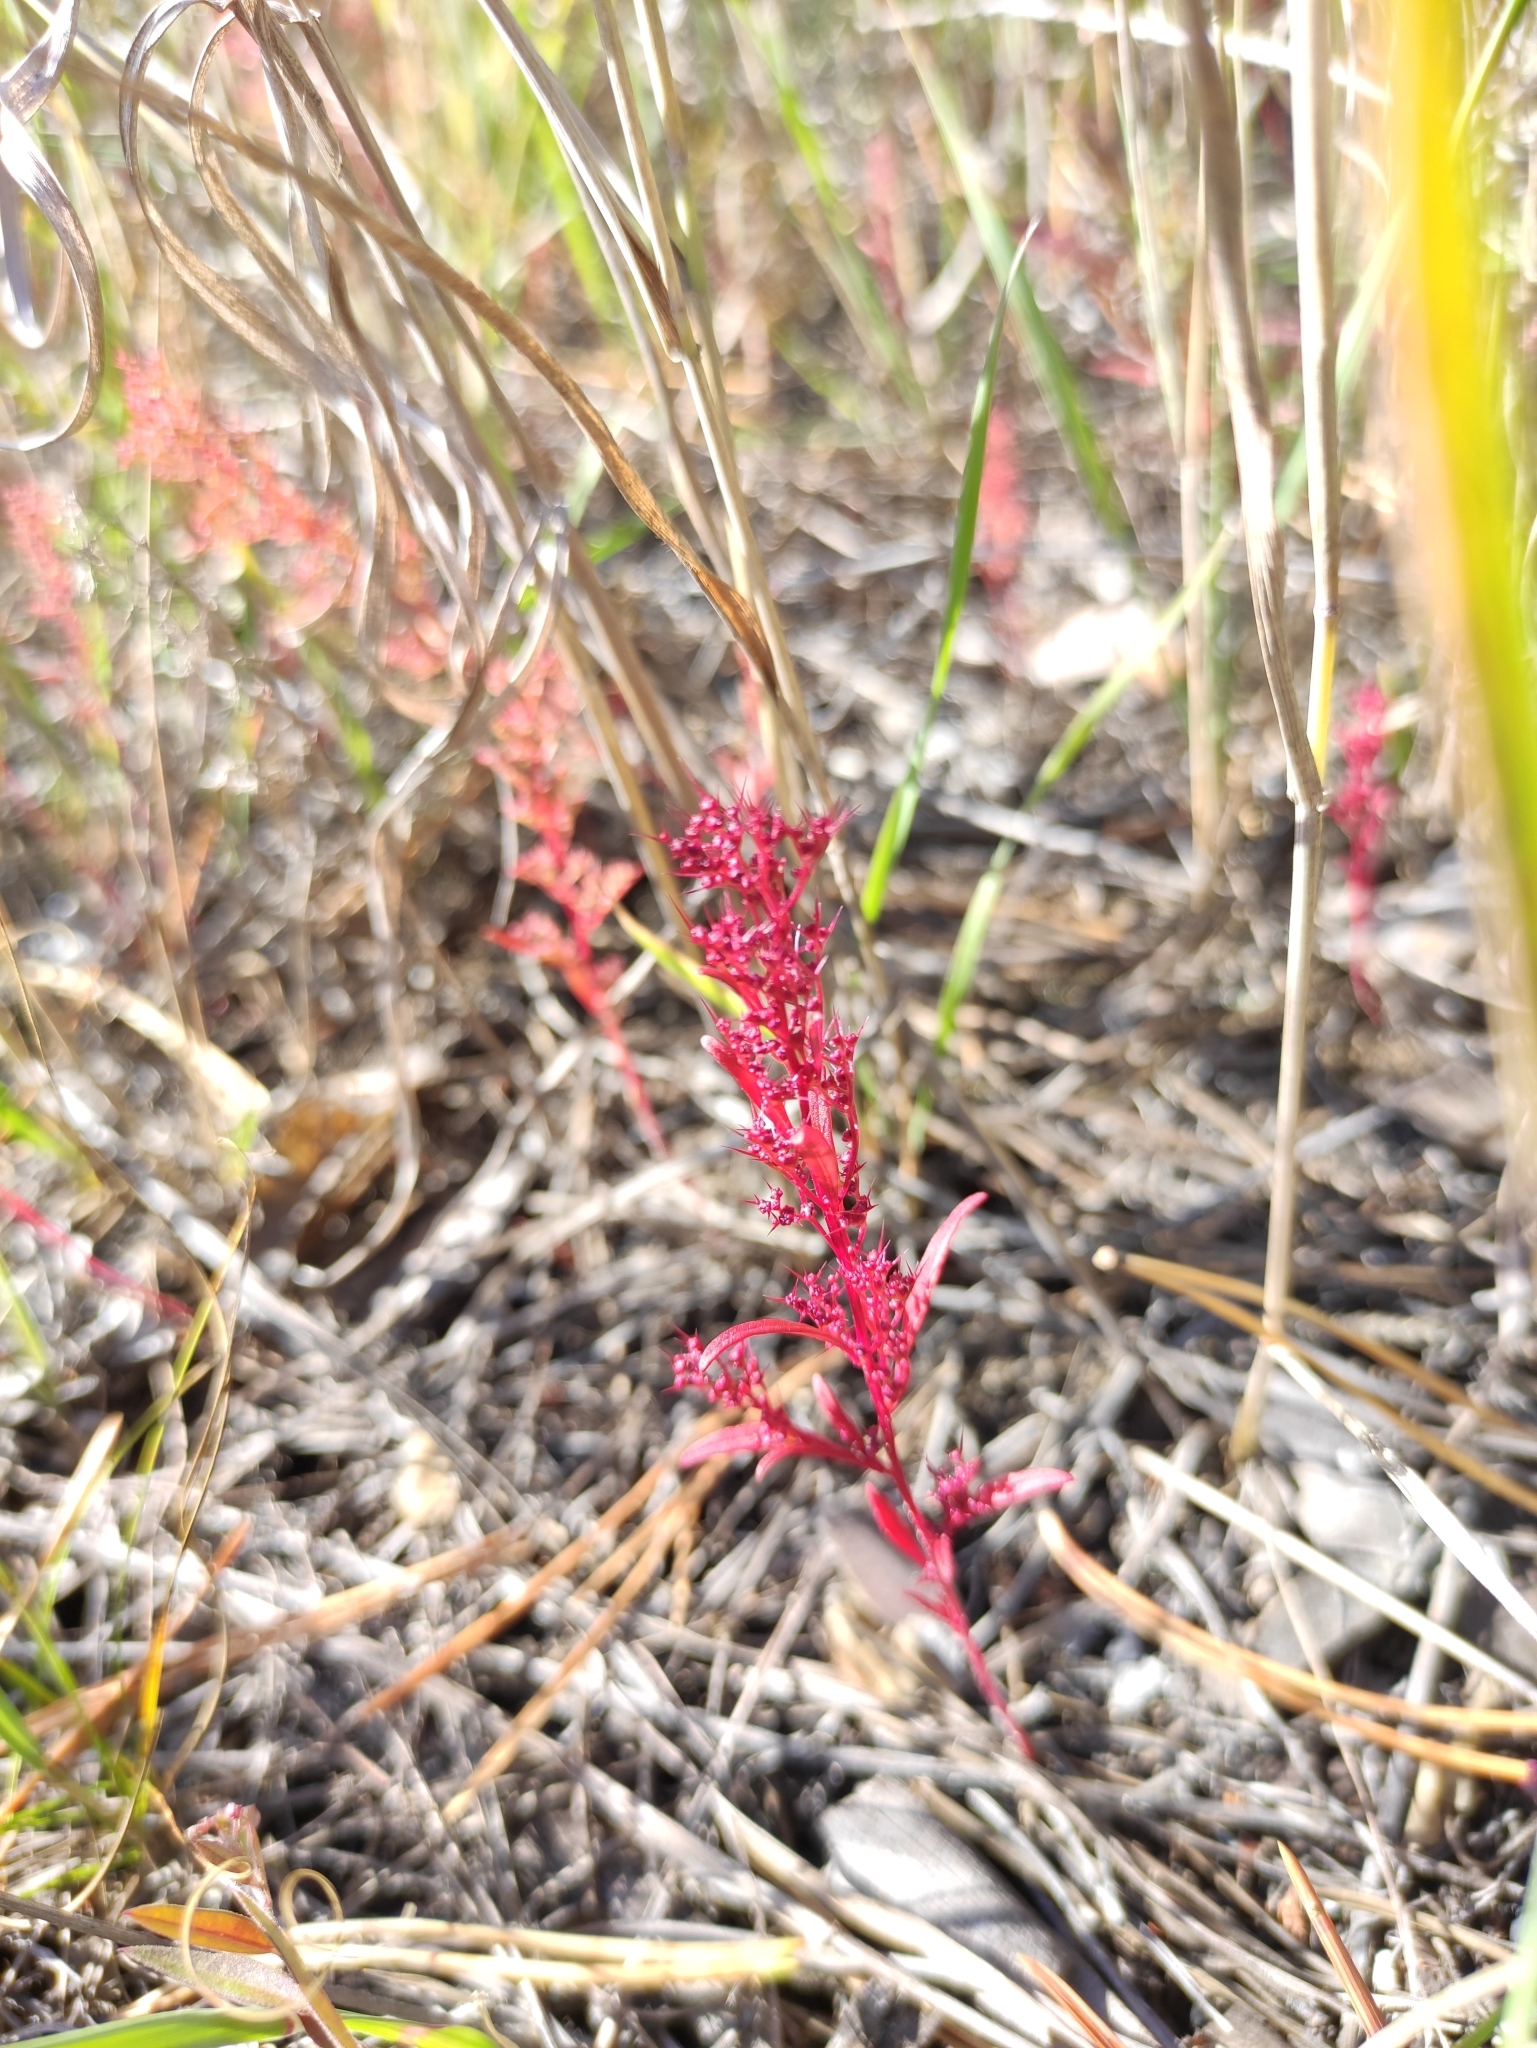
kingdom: Plantae
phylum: Tracheophyta
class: Magnoliopsida
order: Caryophyllales
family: Amaranthaceae
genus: Teloxys
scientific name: Teloxys aristata
